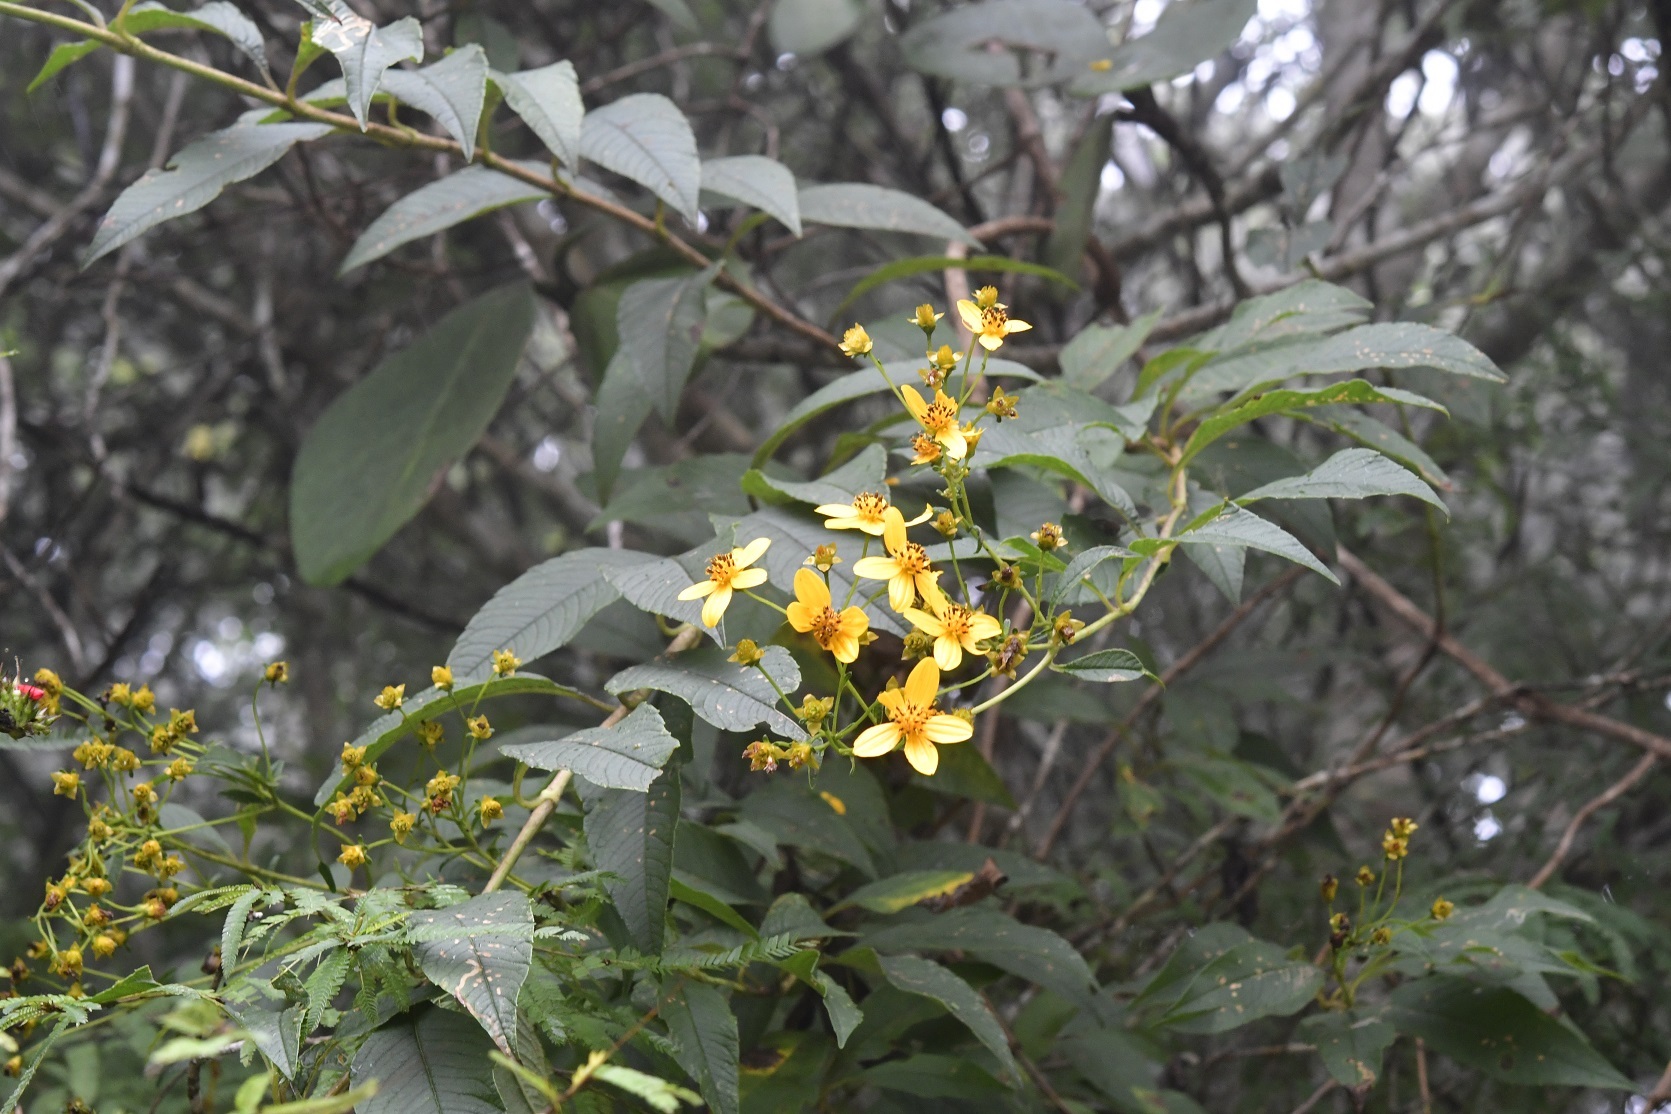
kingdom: Plantae
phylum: Tracheophyta
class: Magnoliopsida
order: Asterales
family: Asteraceae
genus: Electranthera
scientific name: Electranthera mutica
